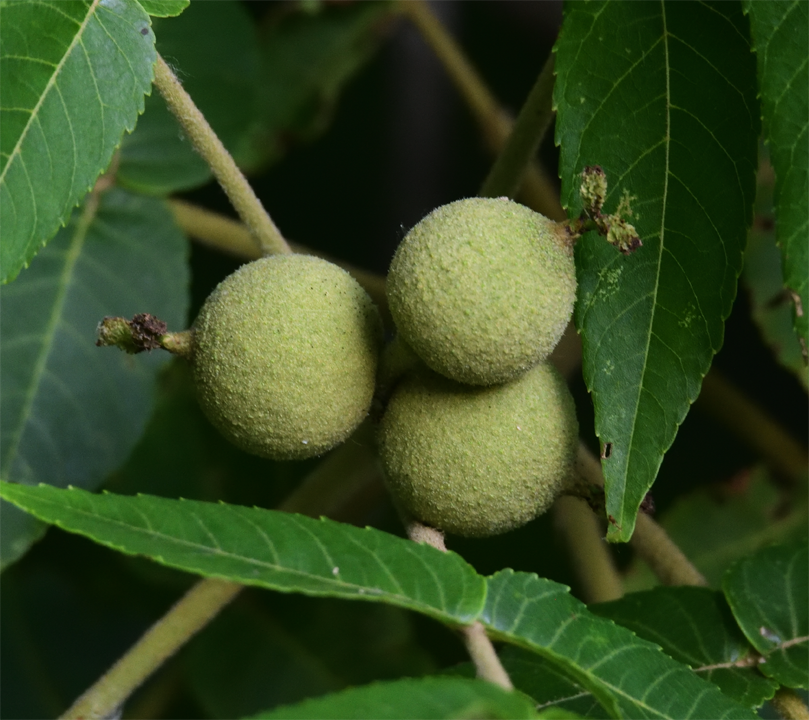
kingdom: Plantae
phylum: Tracheophyta
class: Magnoliopsida
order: Fagales
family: Juglandaceae
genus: Juglans
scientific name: Juglans nigra
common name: Black walnut
